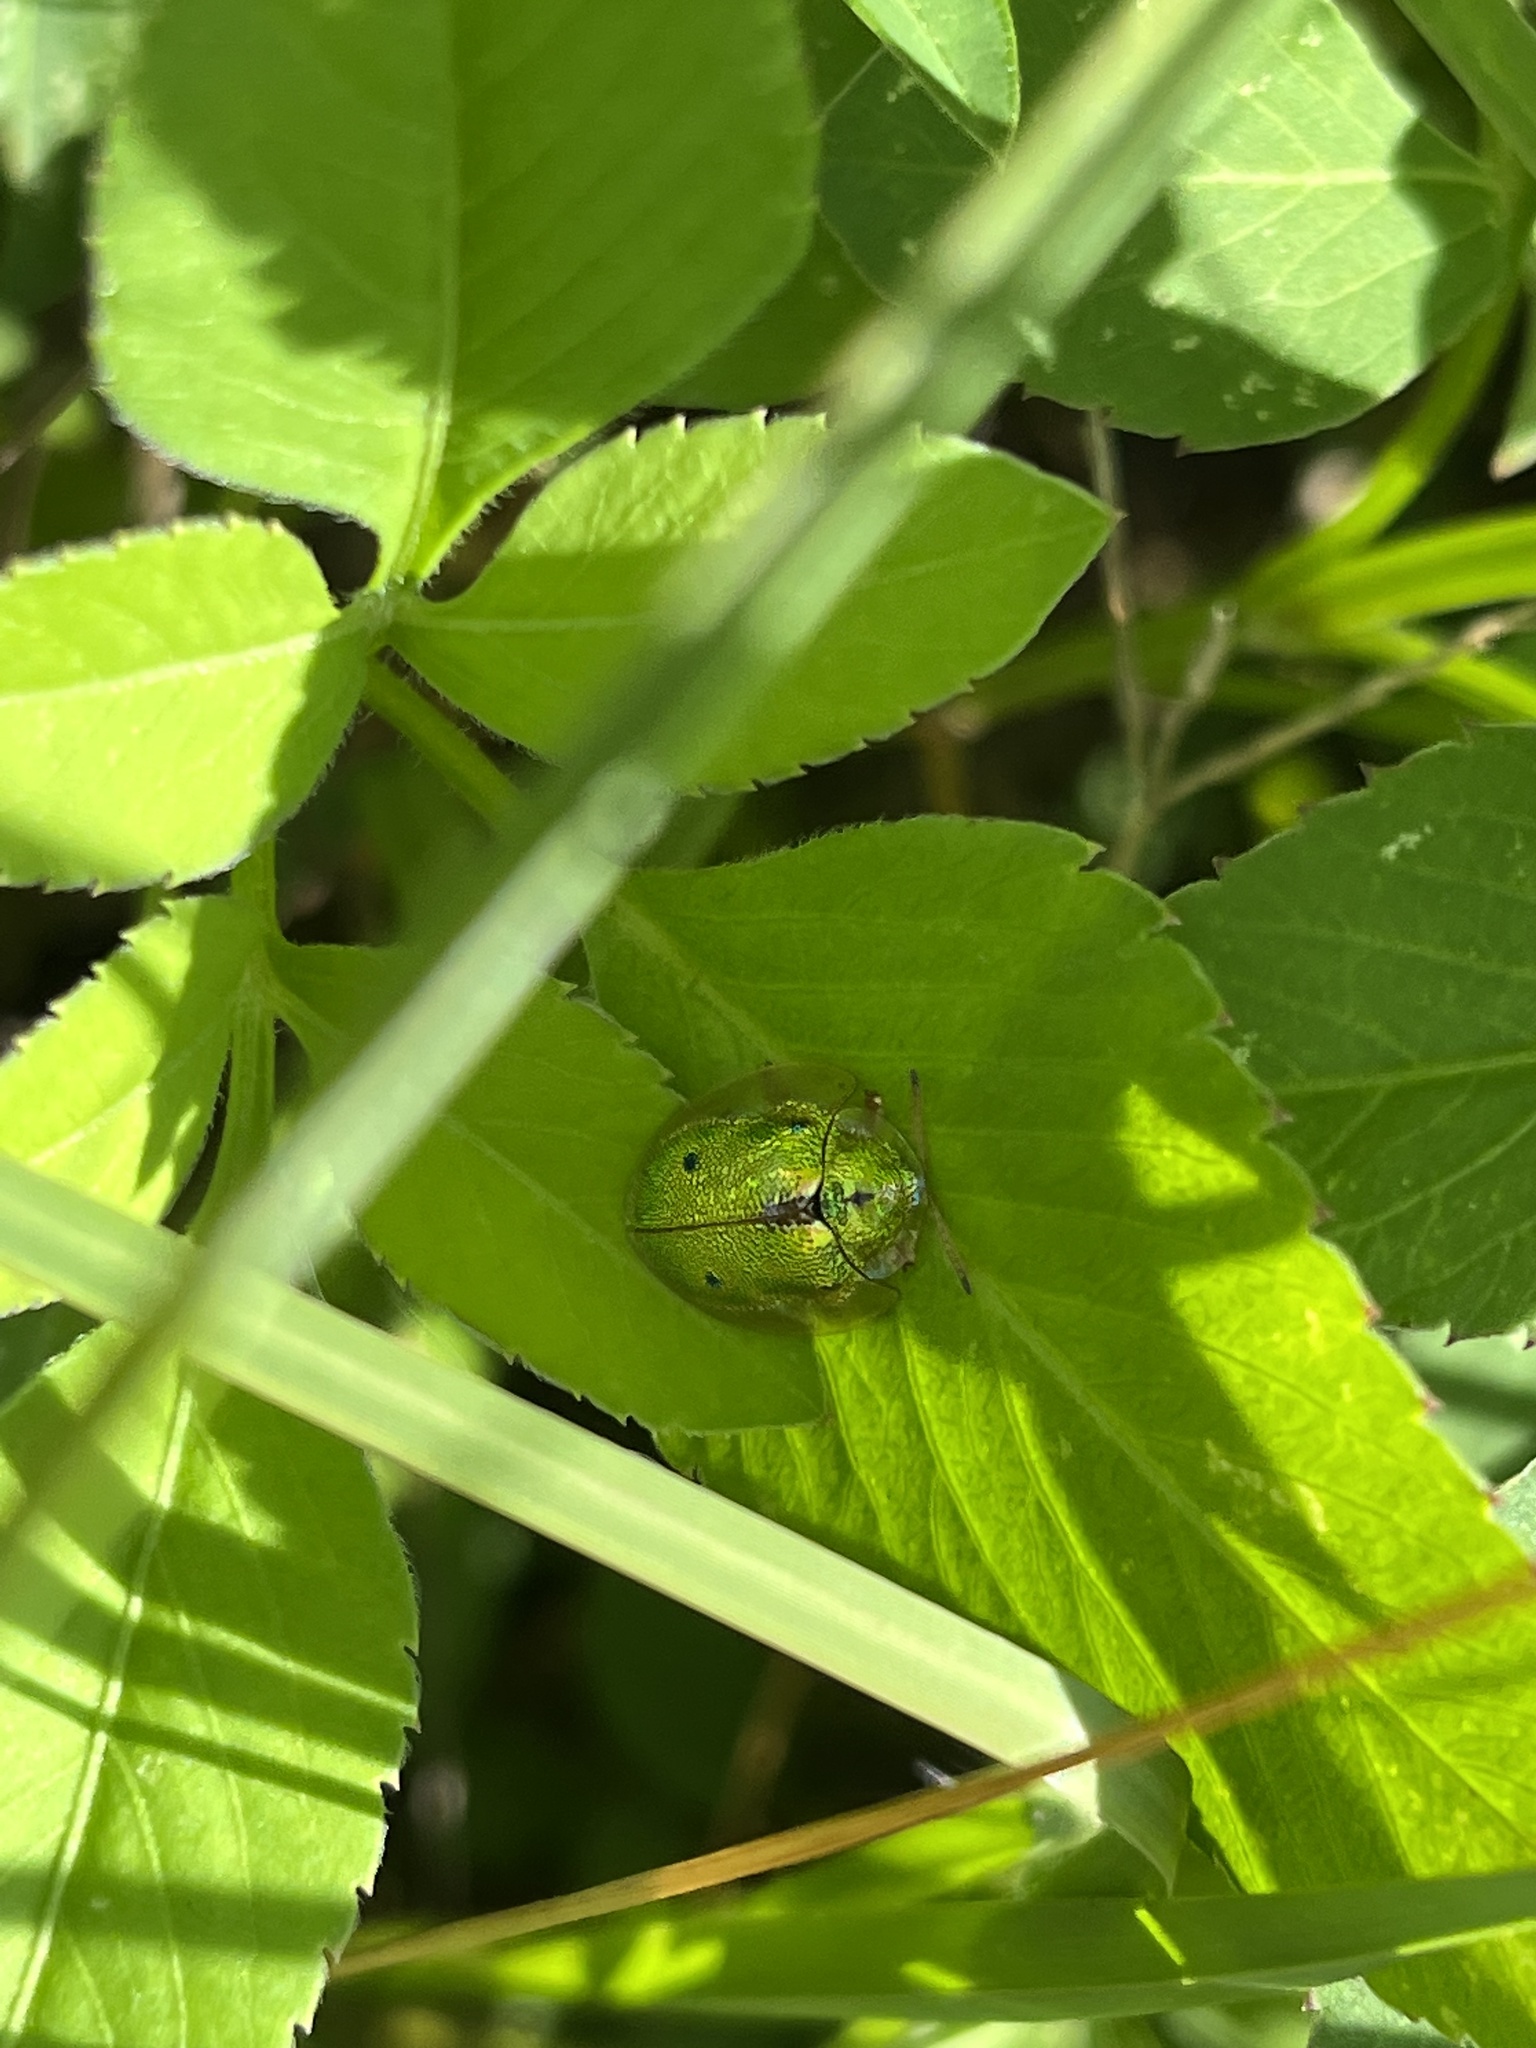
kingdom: Animalia
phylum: Arthropoda
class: Insecta
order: Coleoptera
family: Chrysomelidae
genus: Eurypepla
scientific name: Eurypepla calochroma
